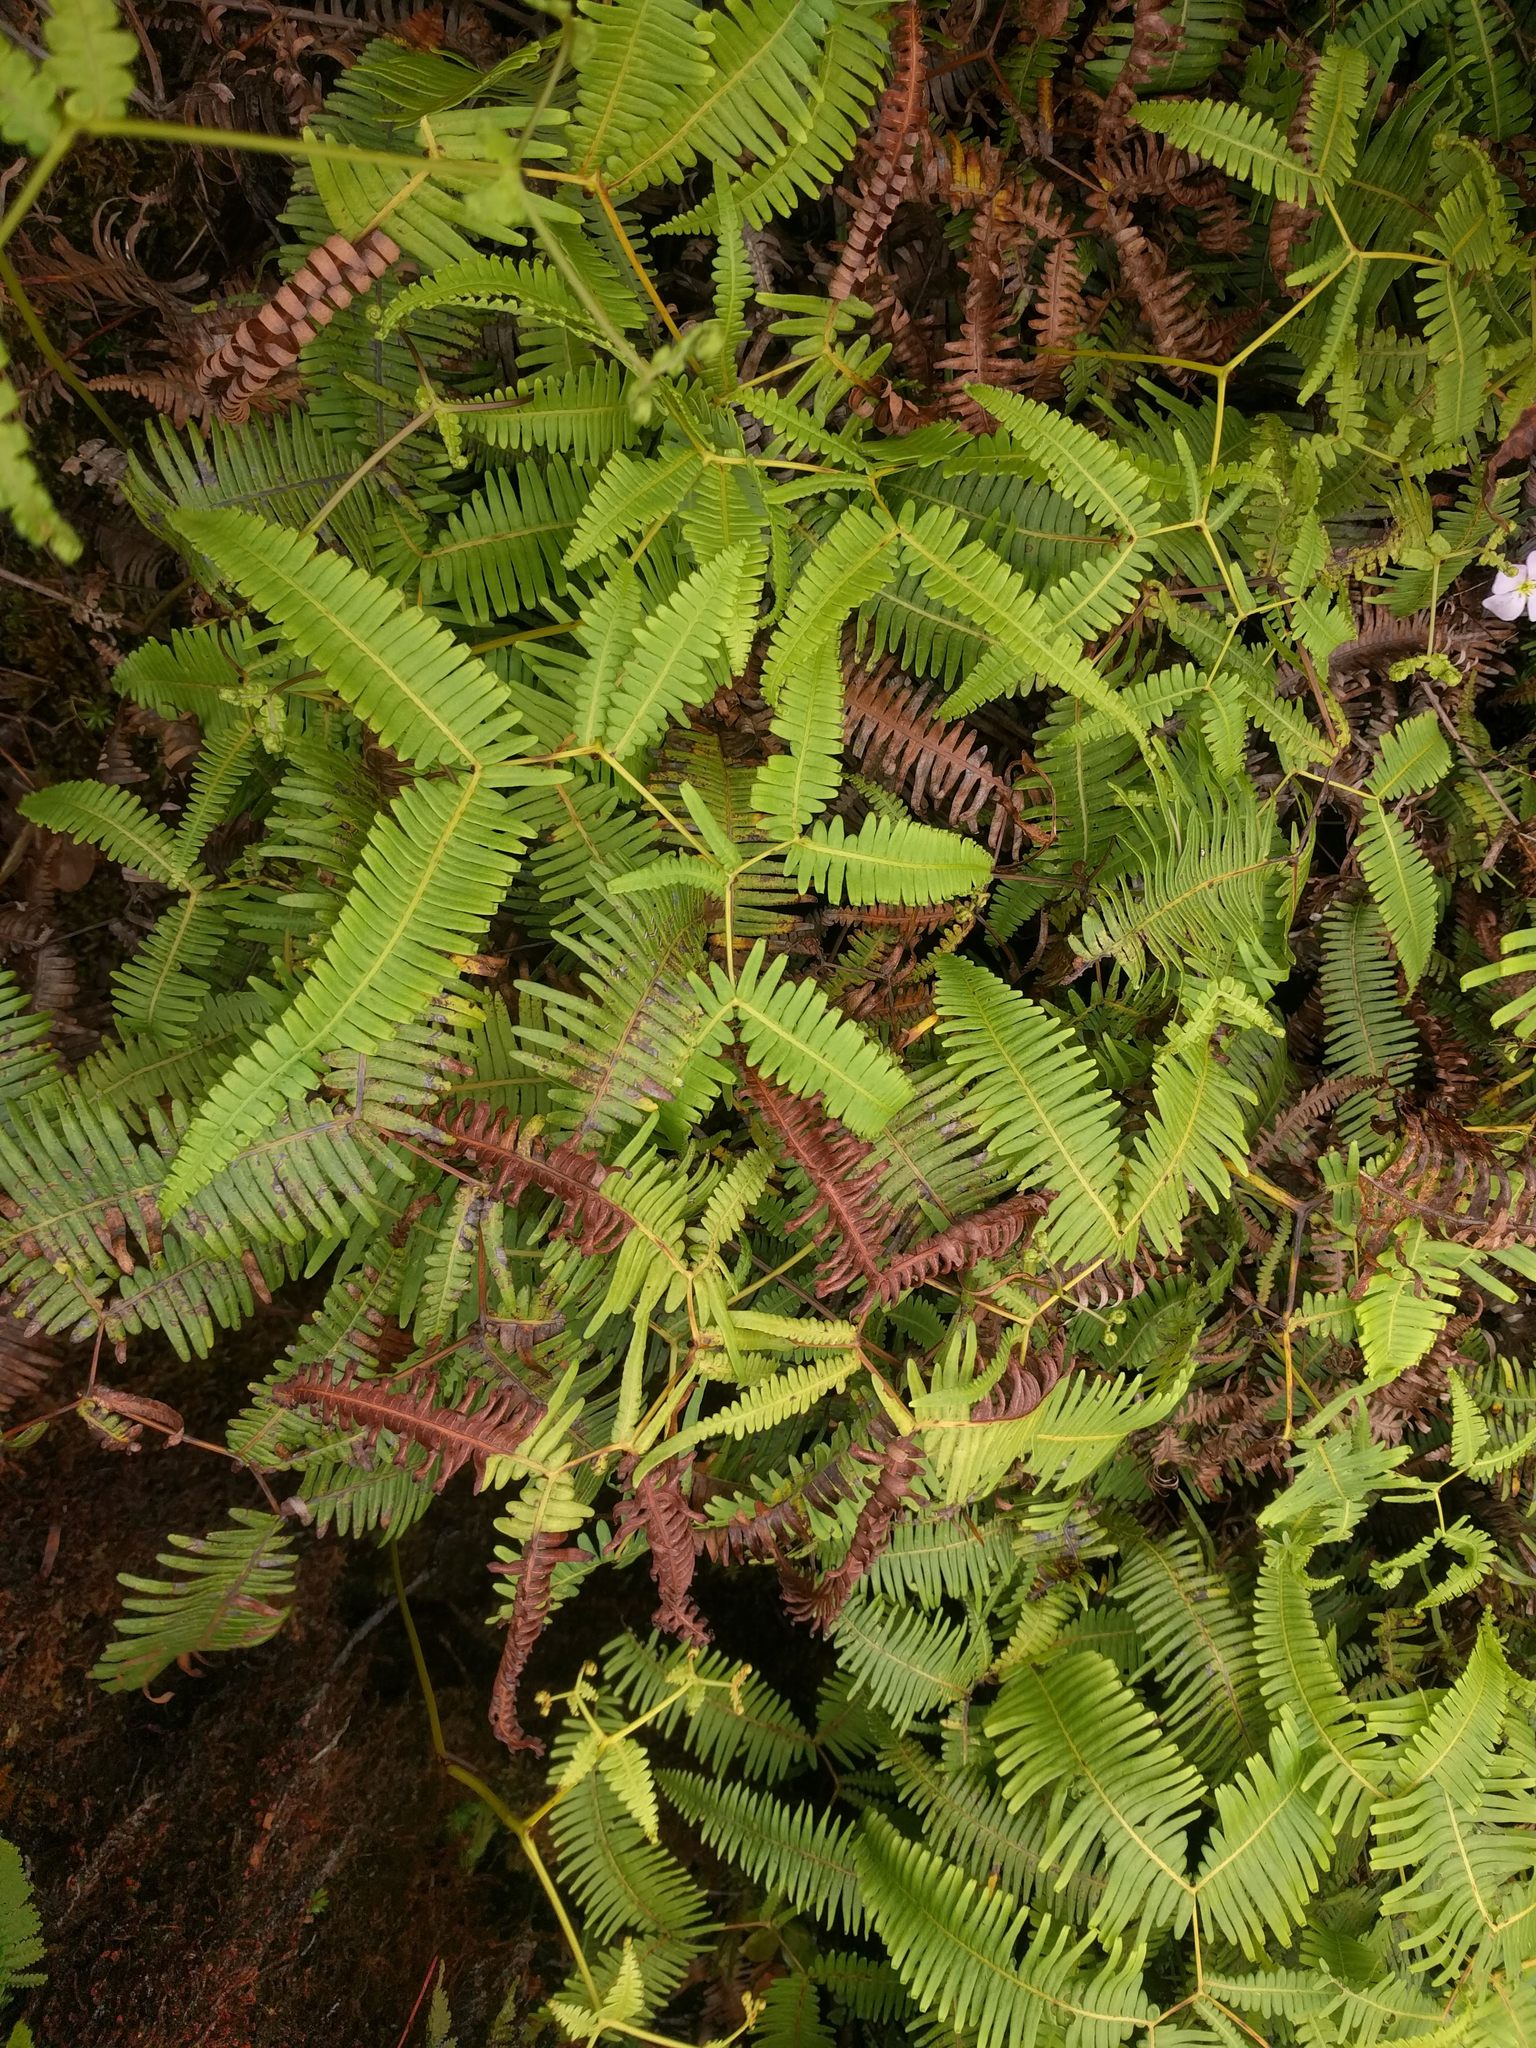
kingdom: Plantae
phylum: Tracheophyta
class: Polypodiopsida
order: Gleicheniales
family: Gleicheniaceae
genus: Dicranopteris
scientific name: Dicranopteris linearis
